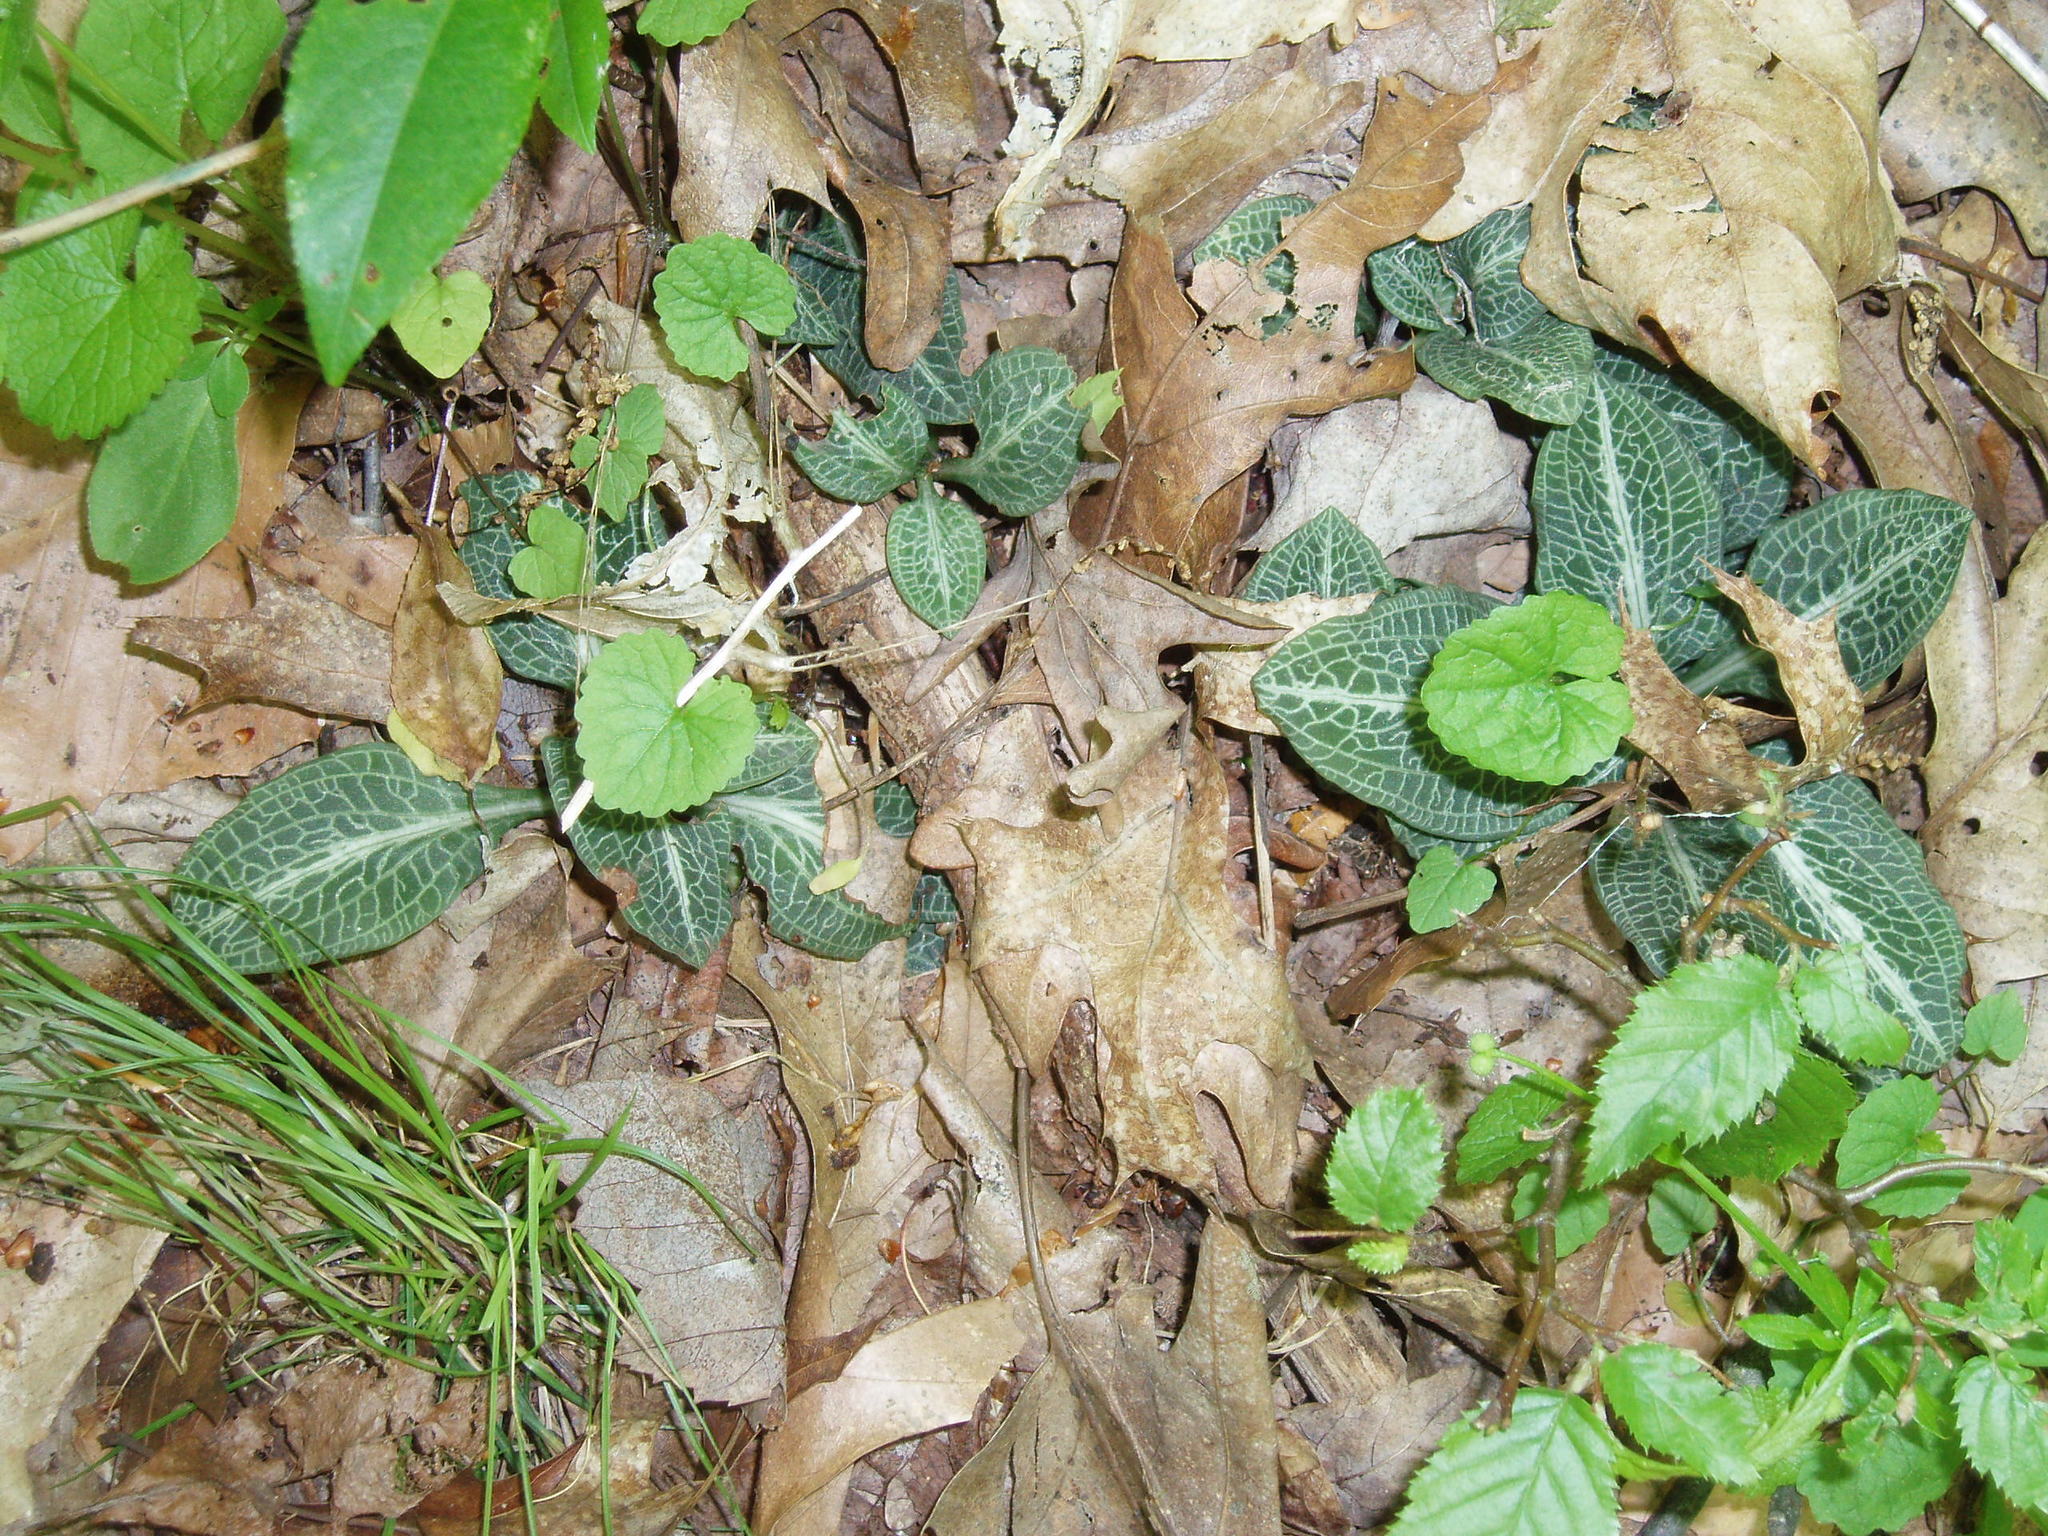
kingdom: Plantae
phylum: Tracheophyta
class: Liliopsida
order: Asparagales
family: Orchidaceae
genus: Goodyera
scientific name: Goodyera pubescens
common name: Downy rattlesnake-plantain
